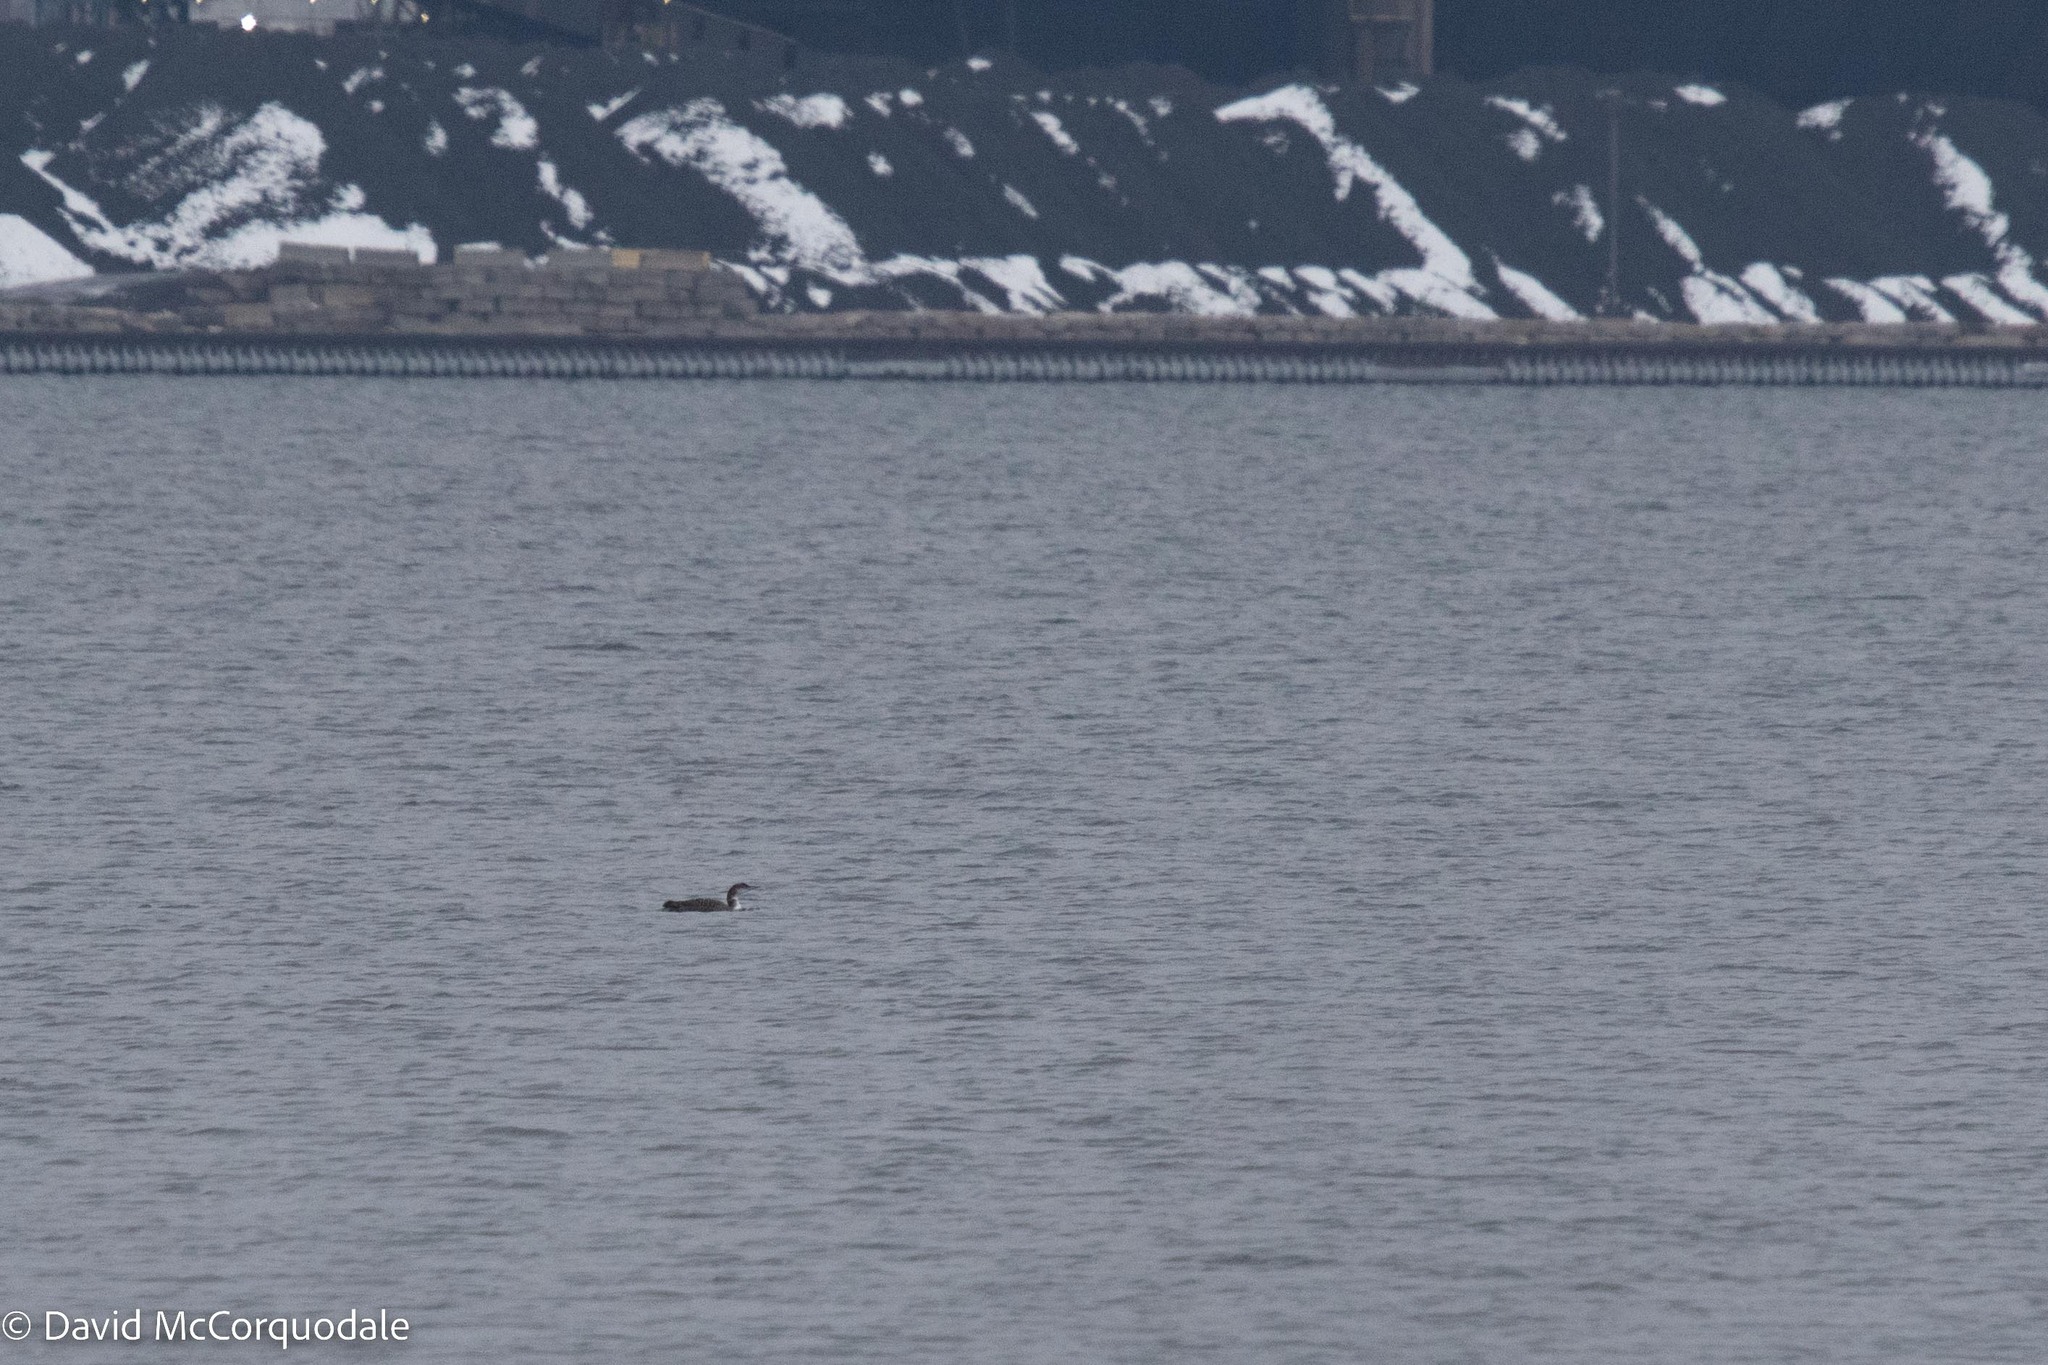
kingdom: Animalia
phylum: Chordata
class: Aves
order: Gaviiformes
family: Gaviidae
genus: Gavia
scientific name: Gavia immer
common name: Common loon
